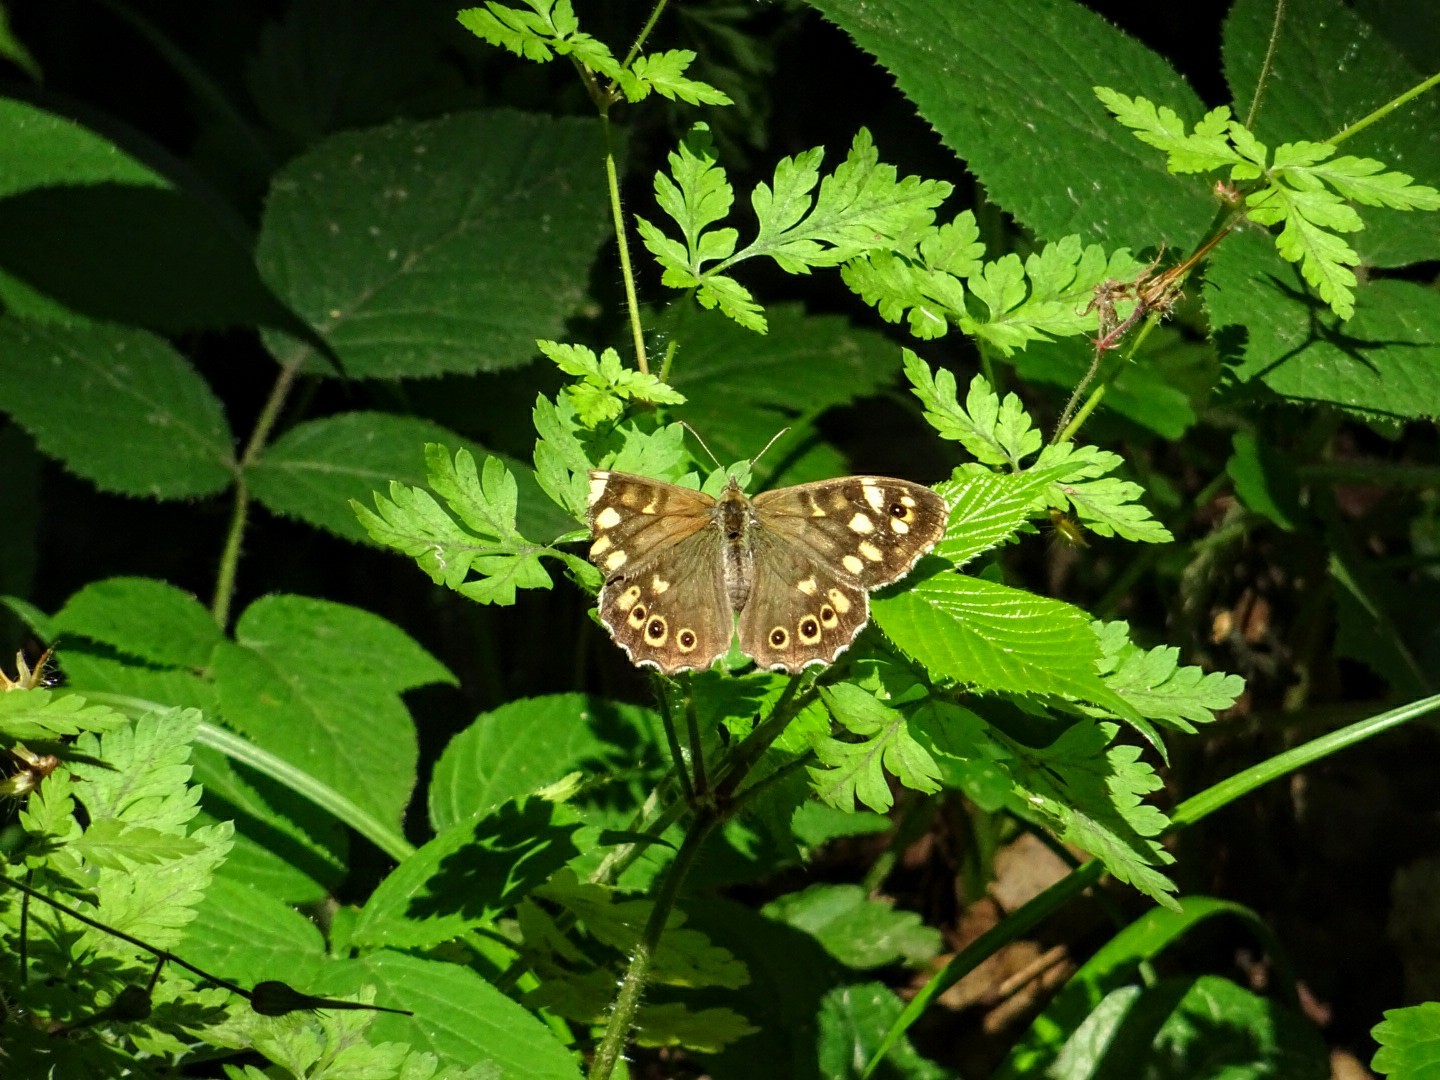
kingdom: Animalia
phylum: Arthropoda
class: Insecta
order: Lepidoptera
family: Nymphalidae
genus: Pararge
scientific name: Pararge aegeria
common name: Speckled wood
